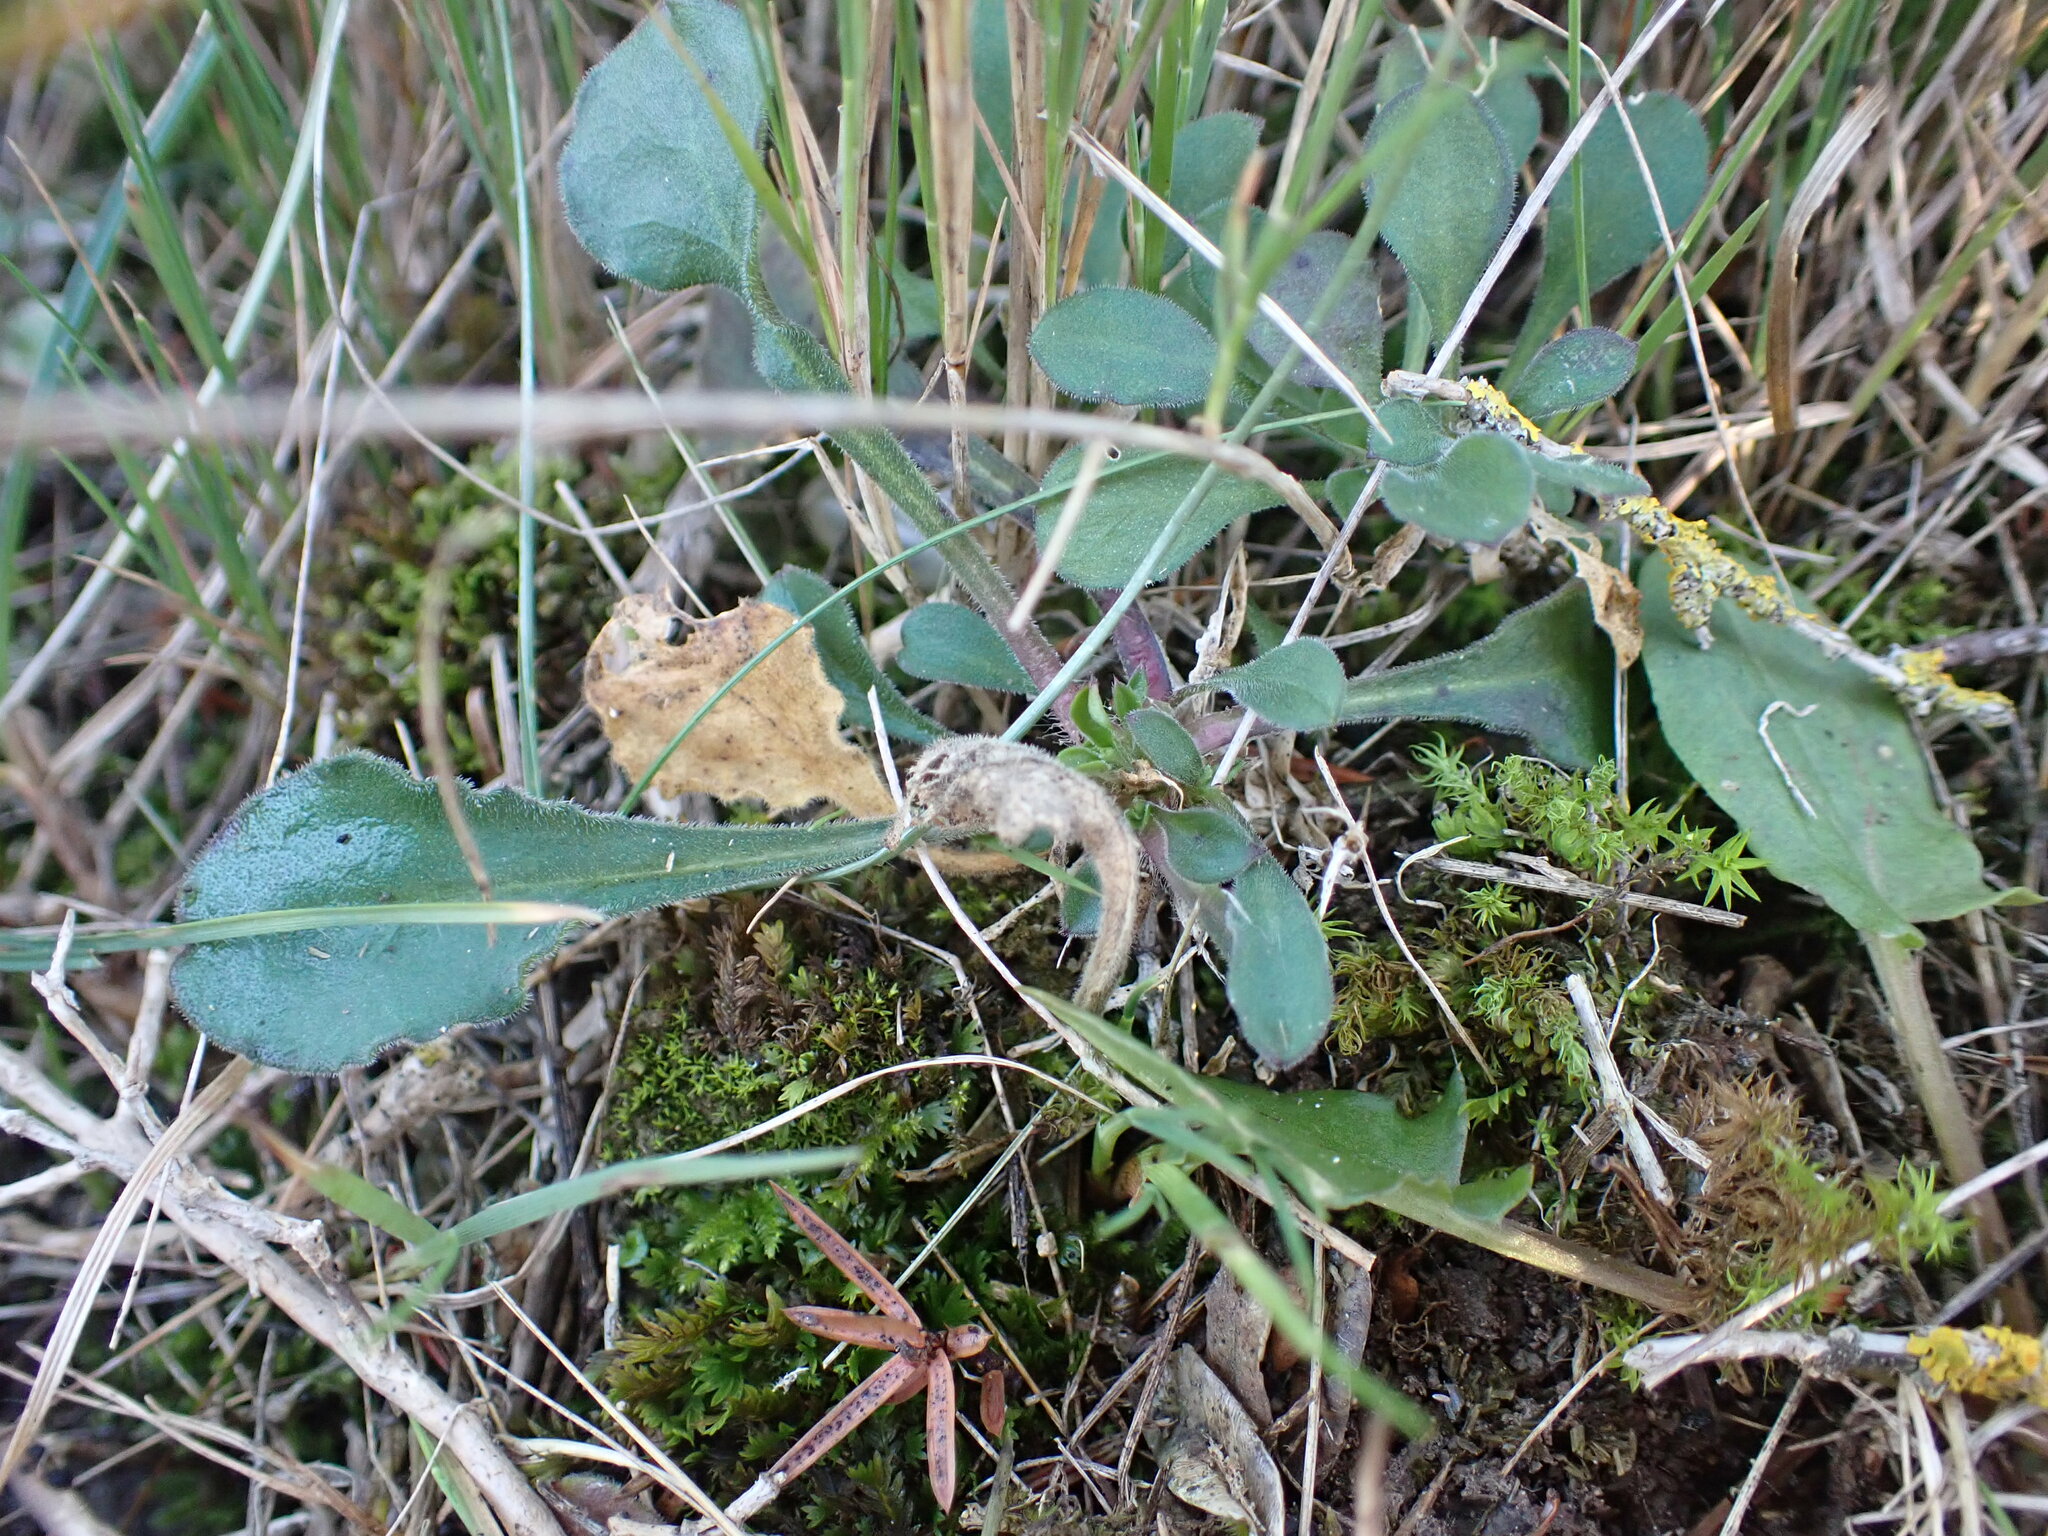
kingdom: Plantae
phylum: Tracheophyta
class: Magnoliopsida
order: Caryophyllales
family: Caryophyllaceae
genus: Silene
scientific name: Silene italica
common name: Italian catchfly
